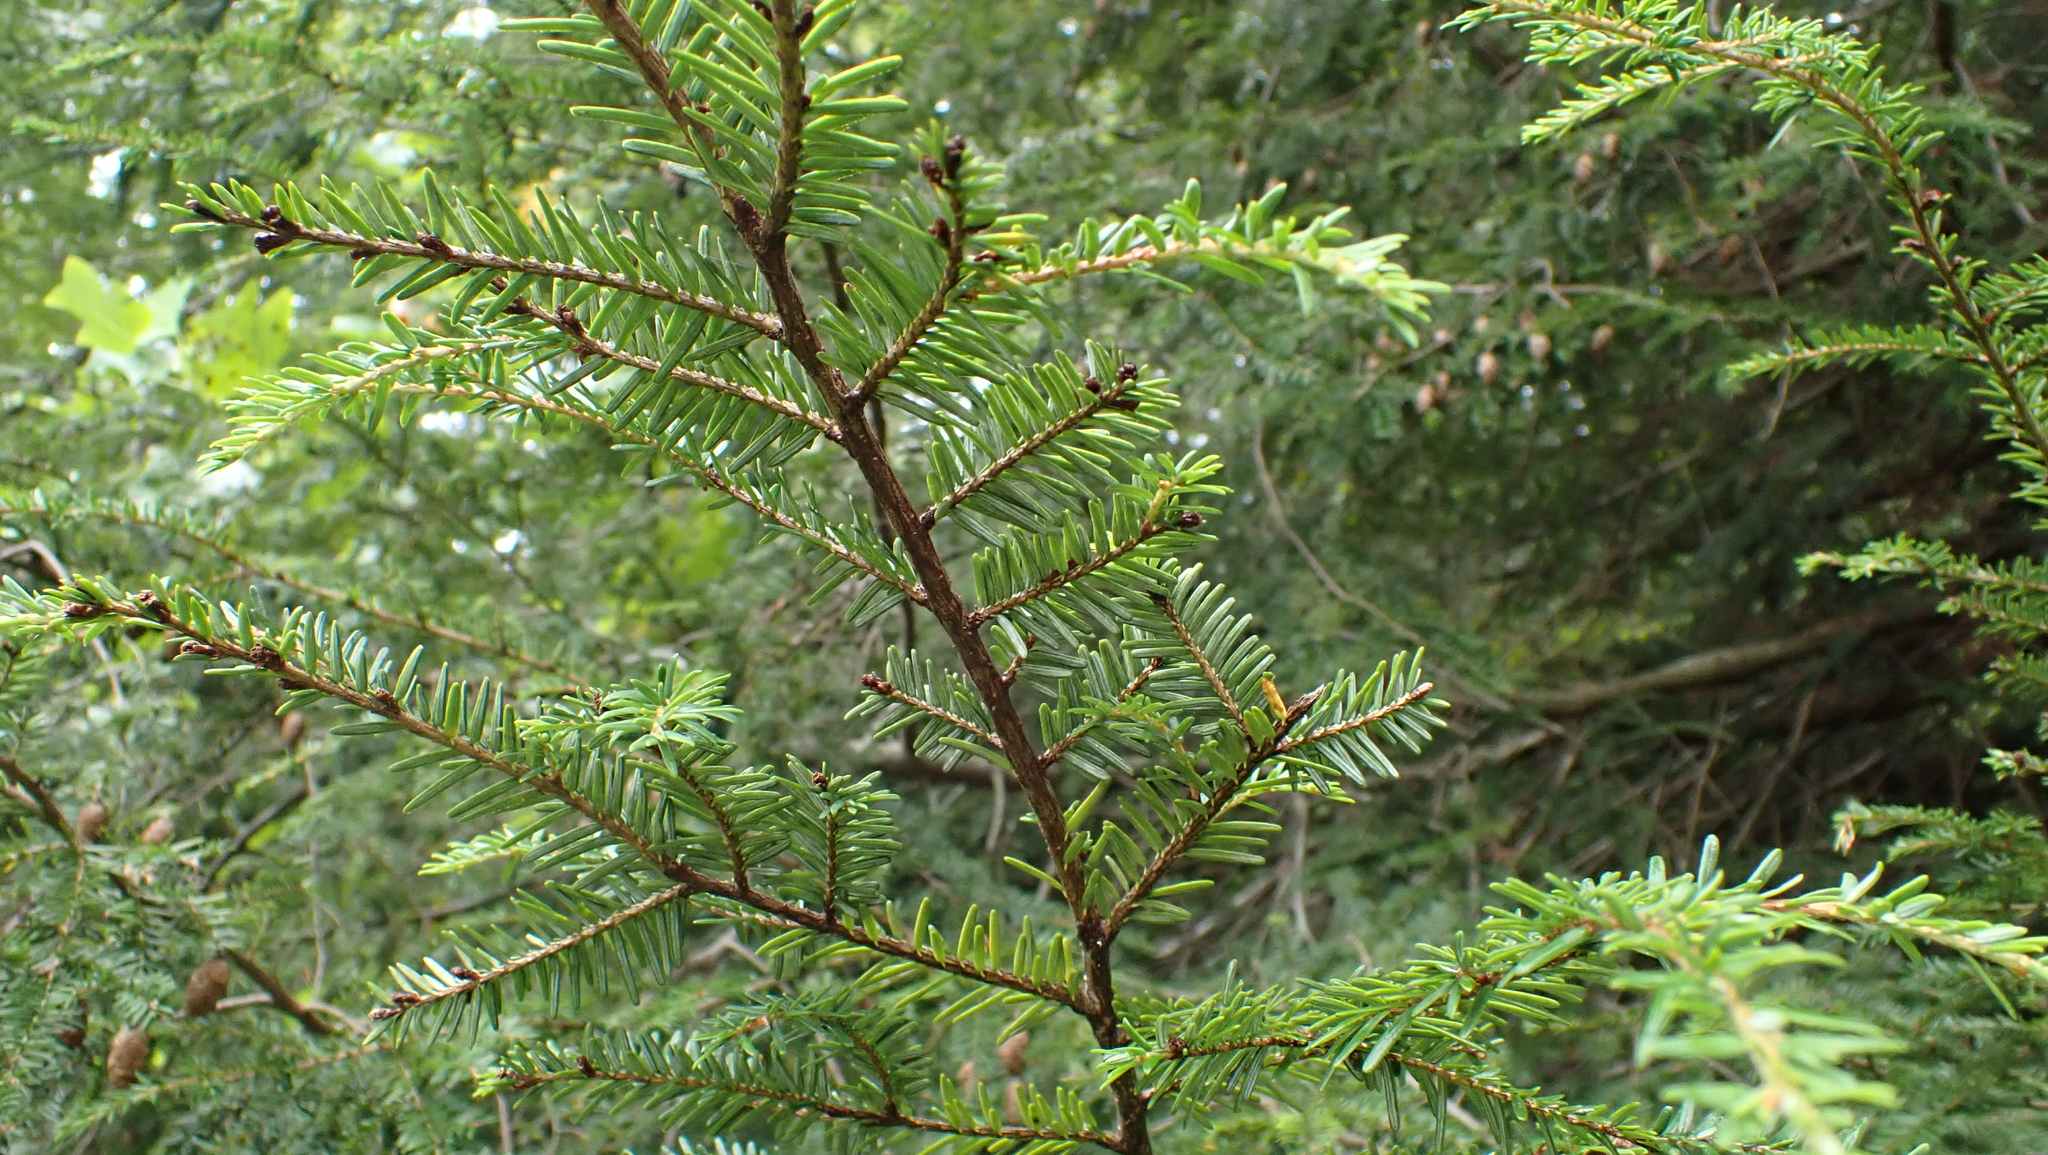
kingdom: Plantae
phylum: Tracheophyta
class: Pinopsida
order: Pinales
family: Pinaceae
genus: Tsuga
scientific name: Tsuga canadensis
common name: Eastern hemlock
